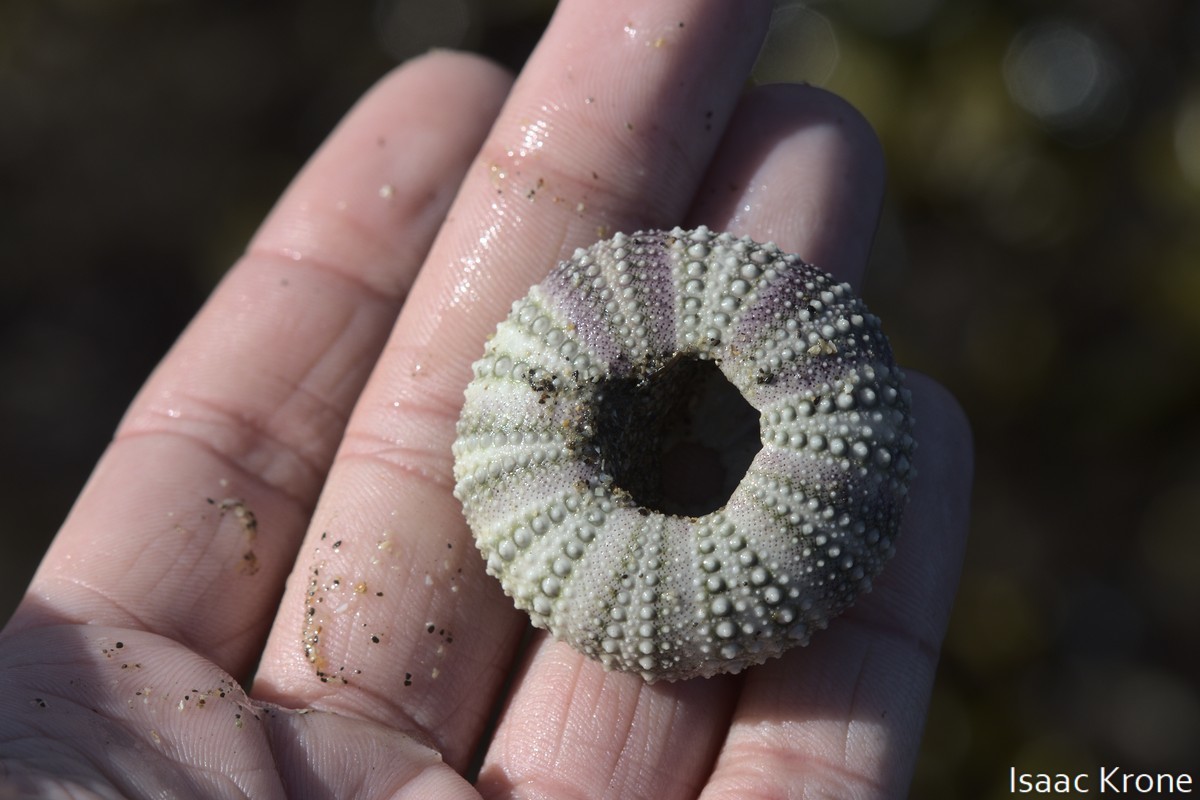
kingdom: Animalia
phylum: Echinodermata
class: Echinoidea
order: Camarodonta
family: Strongylocentrotidae
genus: Strongylocentrotus
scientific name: Strongylocentrotus purpuratus
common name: Purple sea urchin
